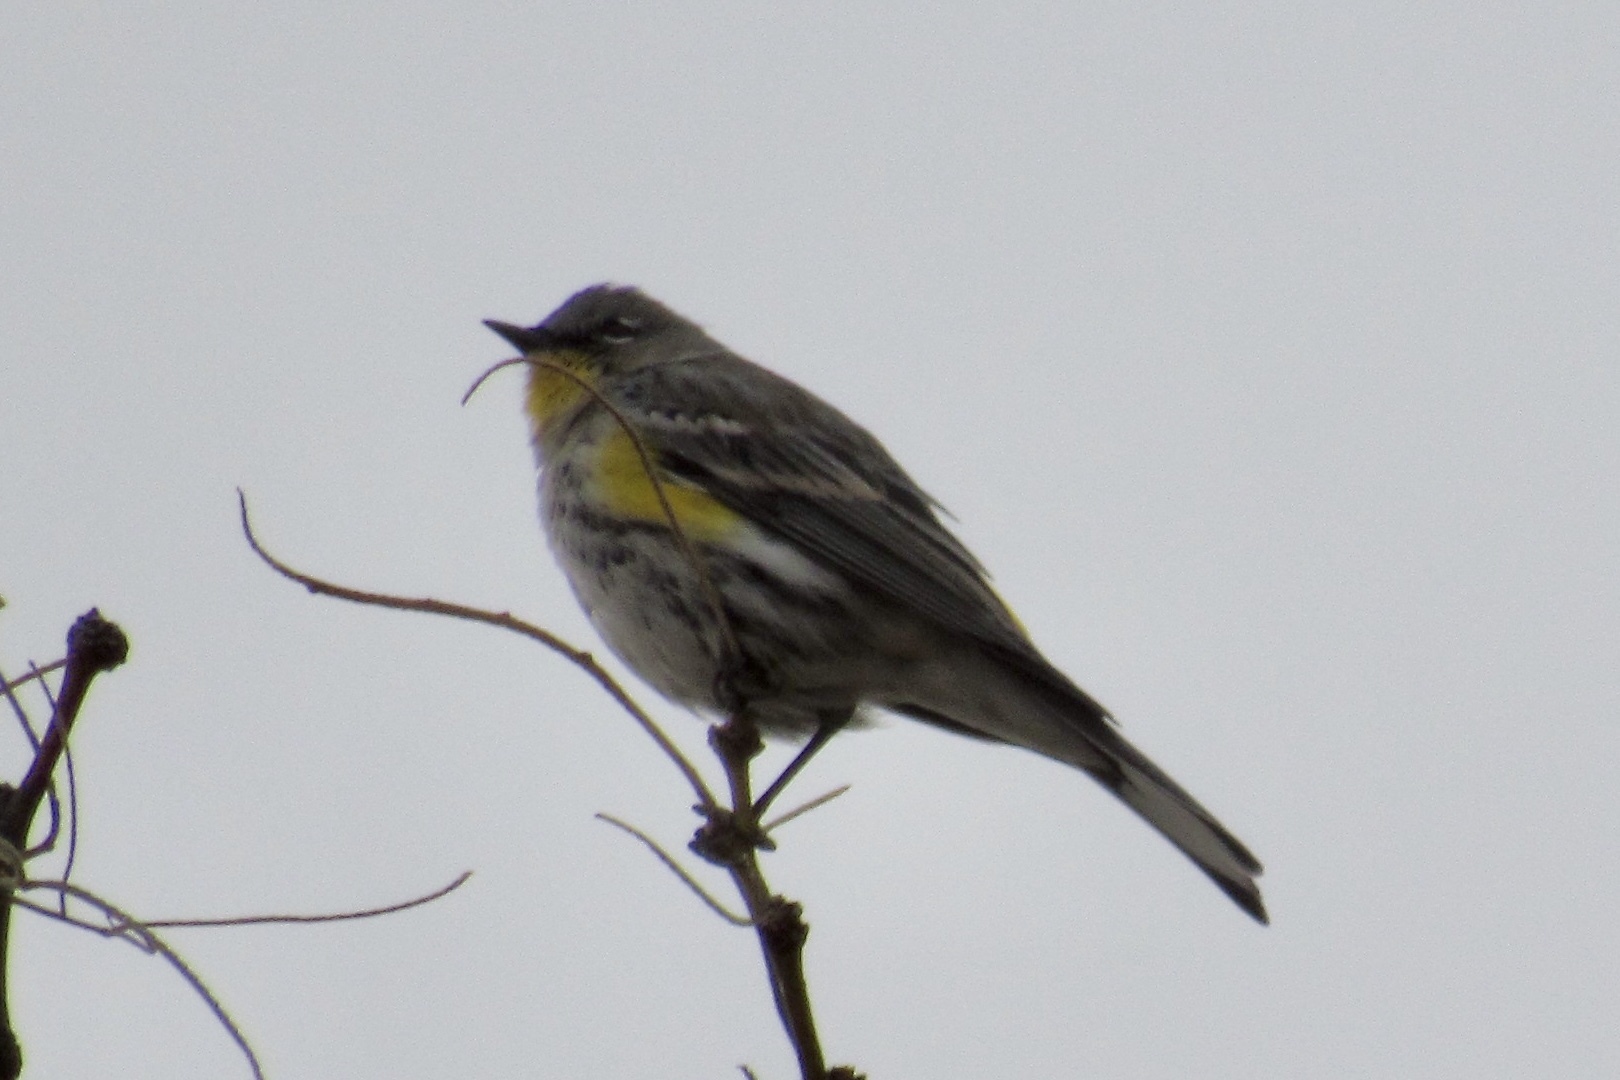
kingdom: Animalia
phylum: Chordata
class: Aves
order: Passeriformes
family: Parulidae
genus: Setophaga
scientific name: Setophaga coronata
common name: Myrtle warbler
